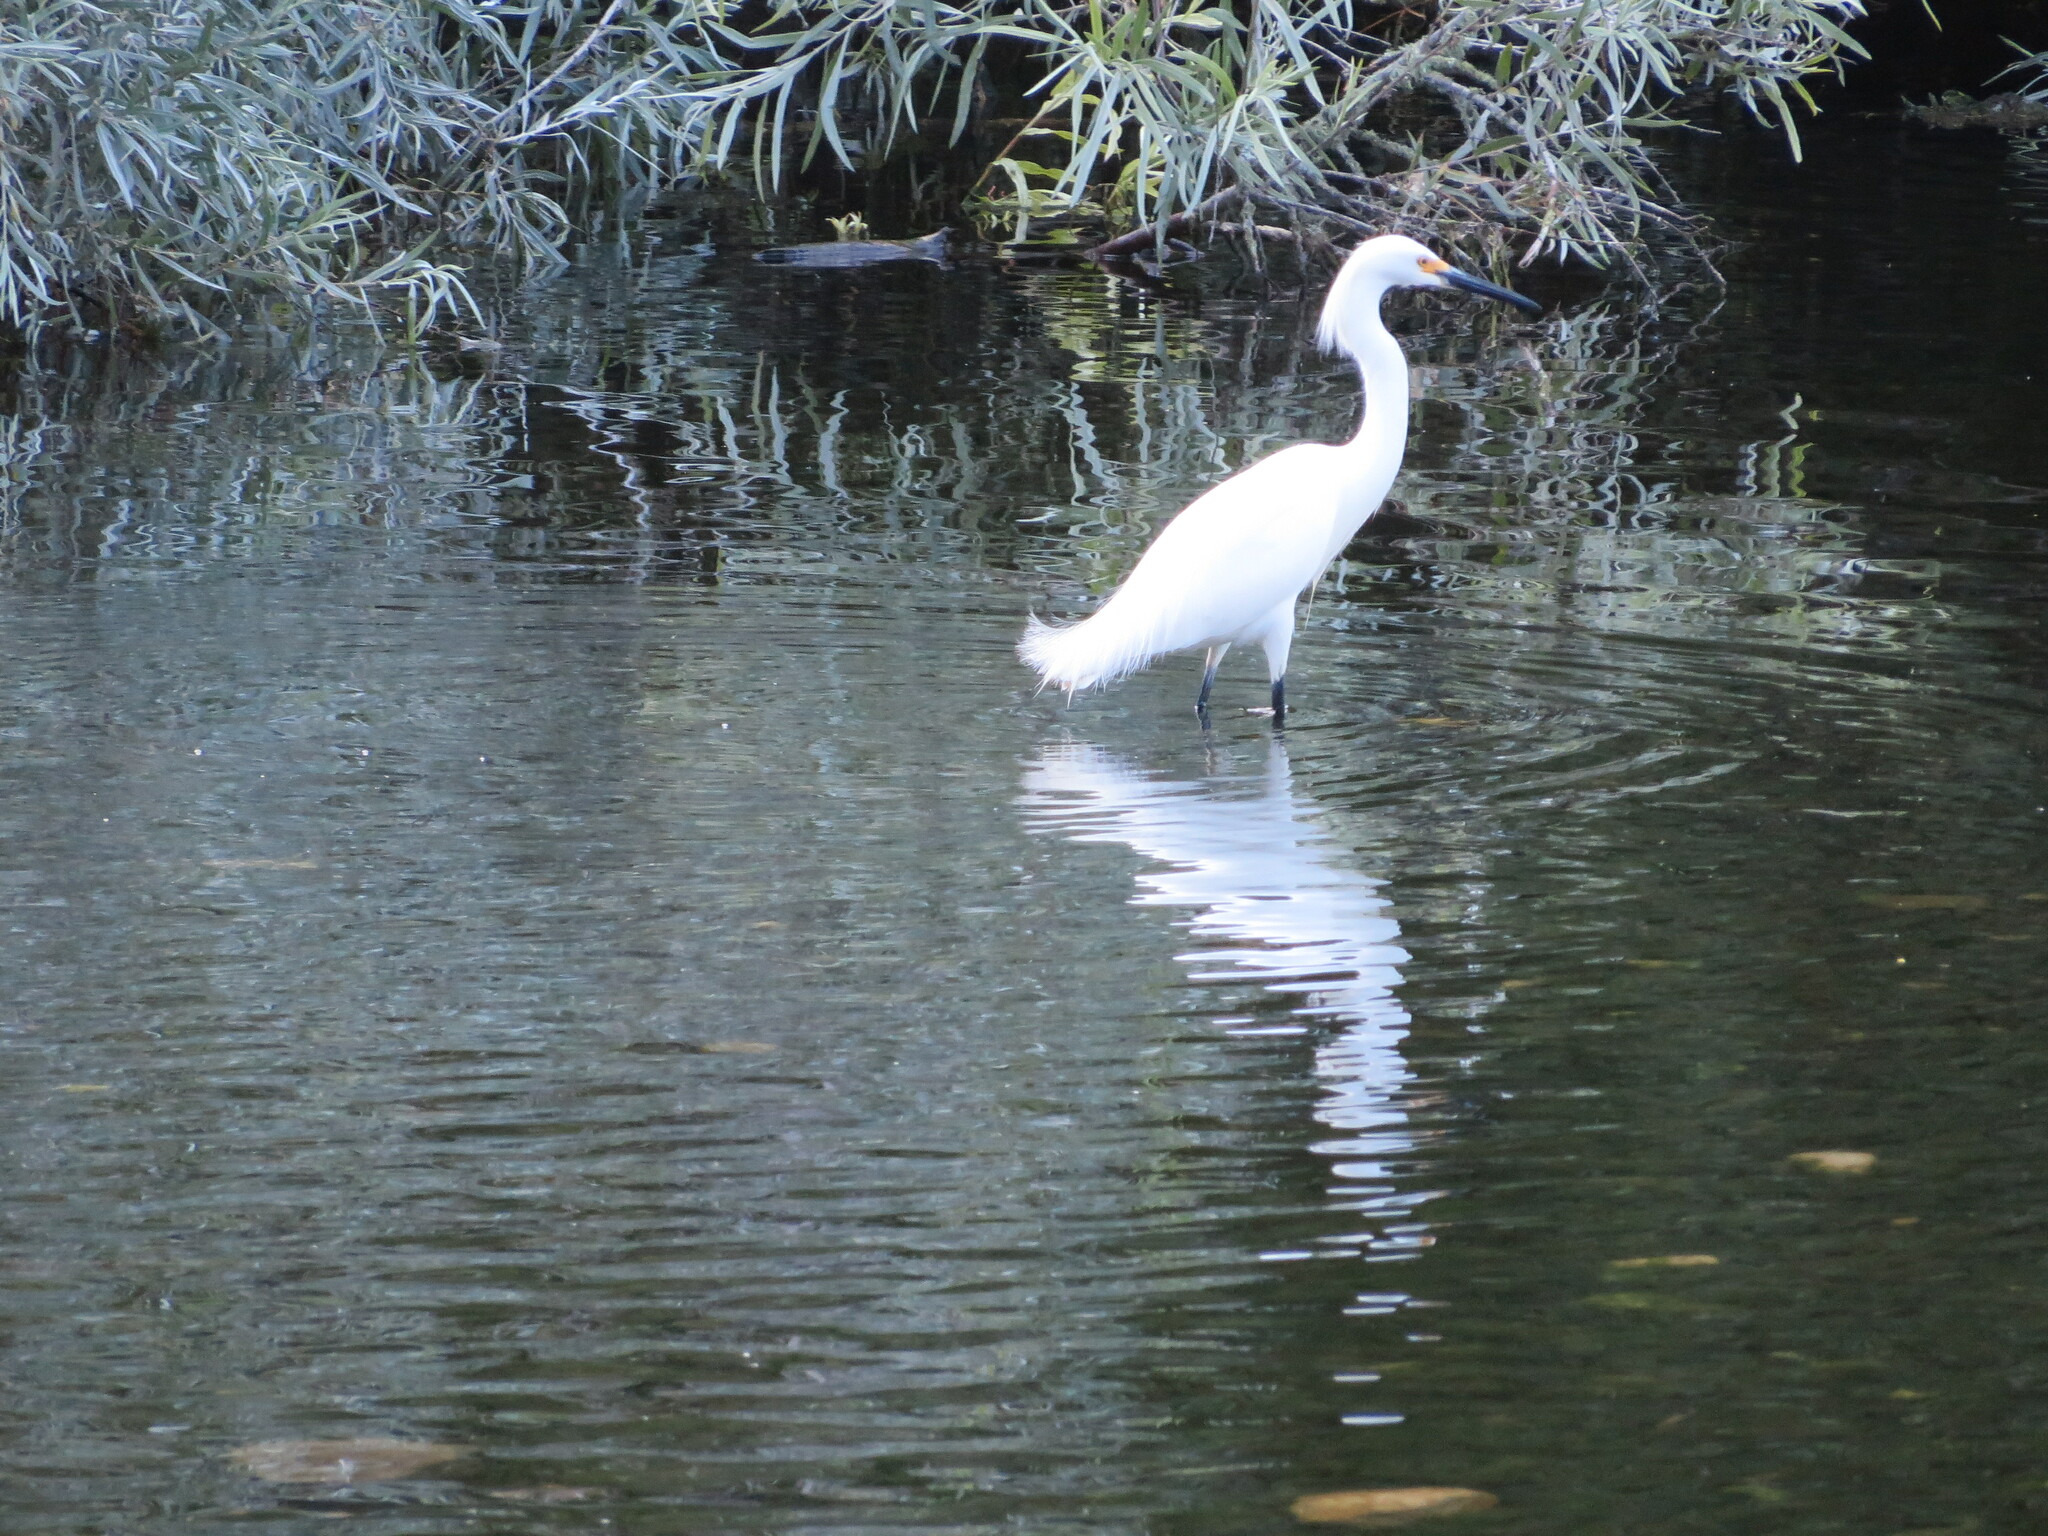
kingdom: Animalia
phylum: Chordata
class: Aves
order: Pelecaniformes
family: Ardeidae
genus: Egretta
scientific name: Egretta thula
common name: Snowy egret
